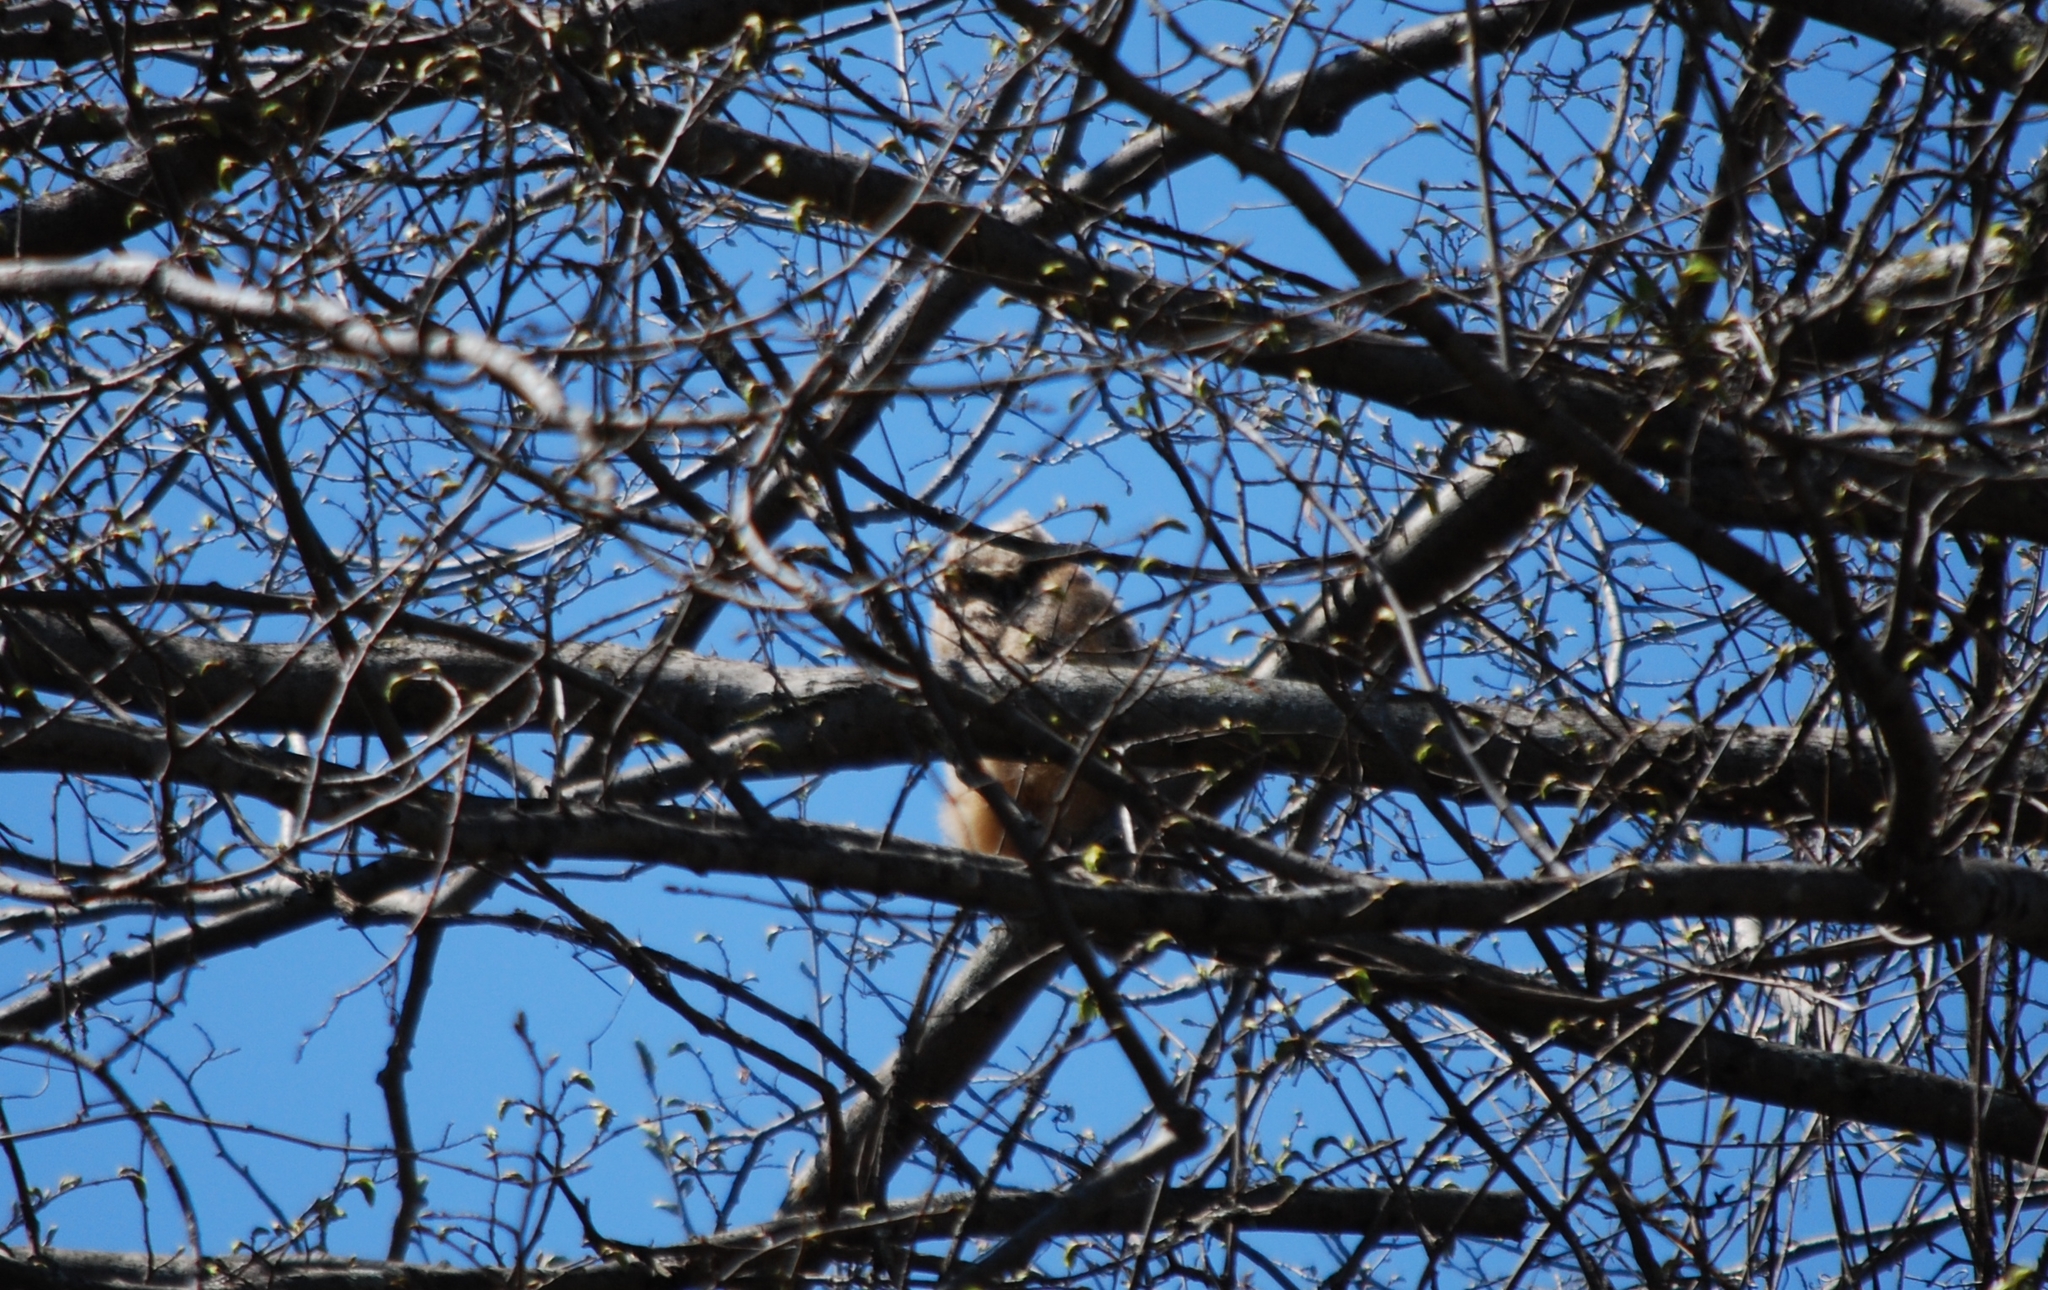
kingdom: Animalia
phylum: Chordata
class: Aves
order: Strigiformes
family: Strigidae
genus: Bubo
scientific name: Bubo virginianus
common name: Great horned owl
